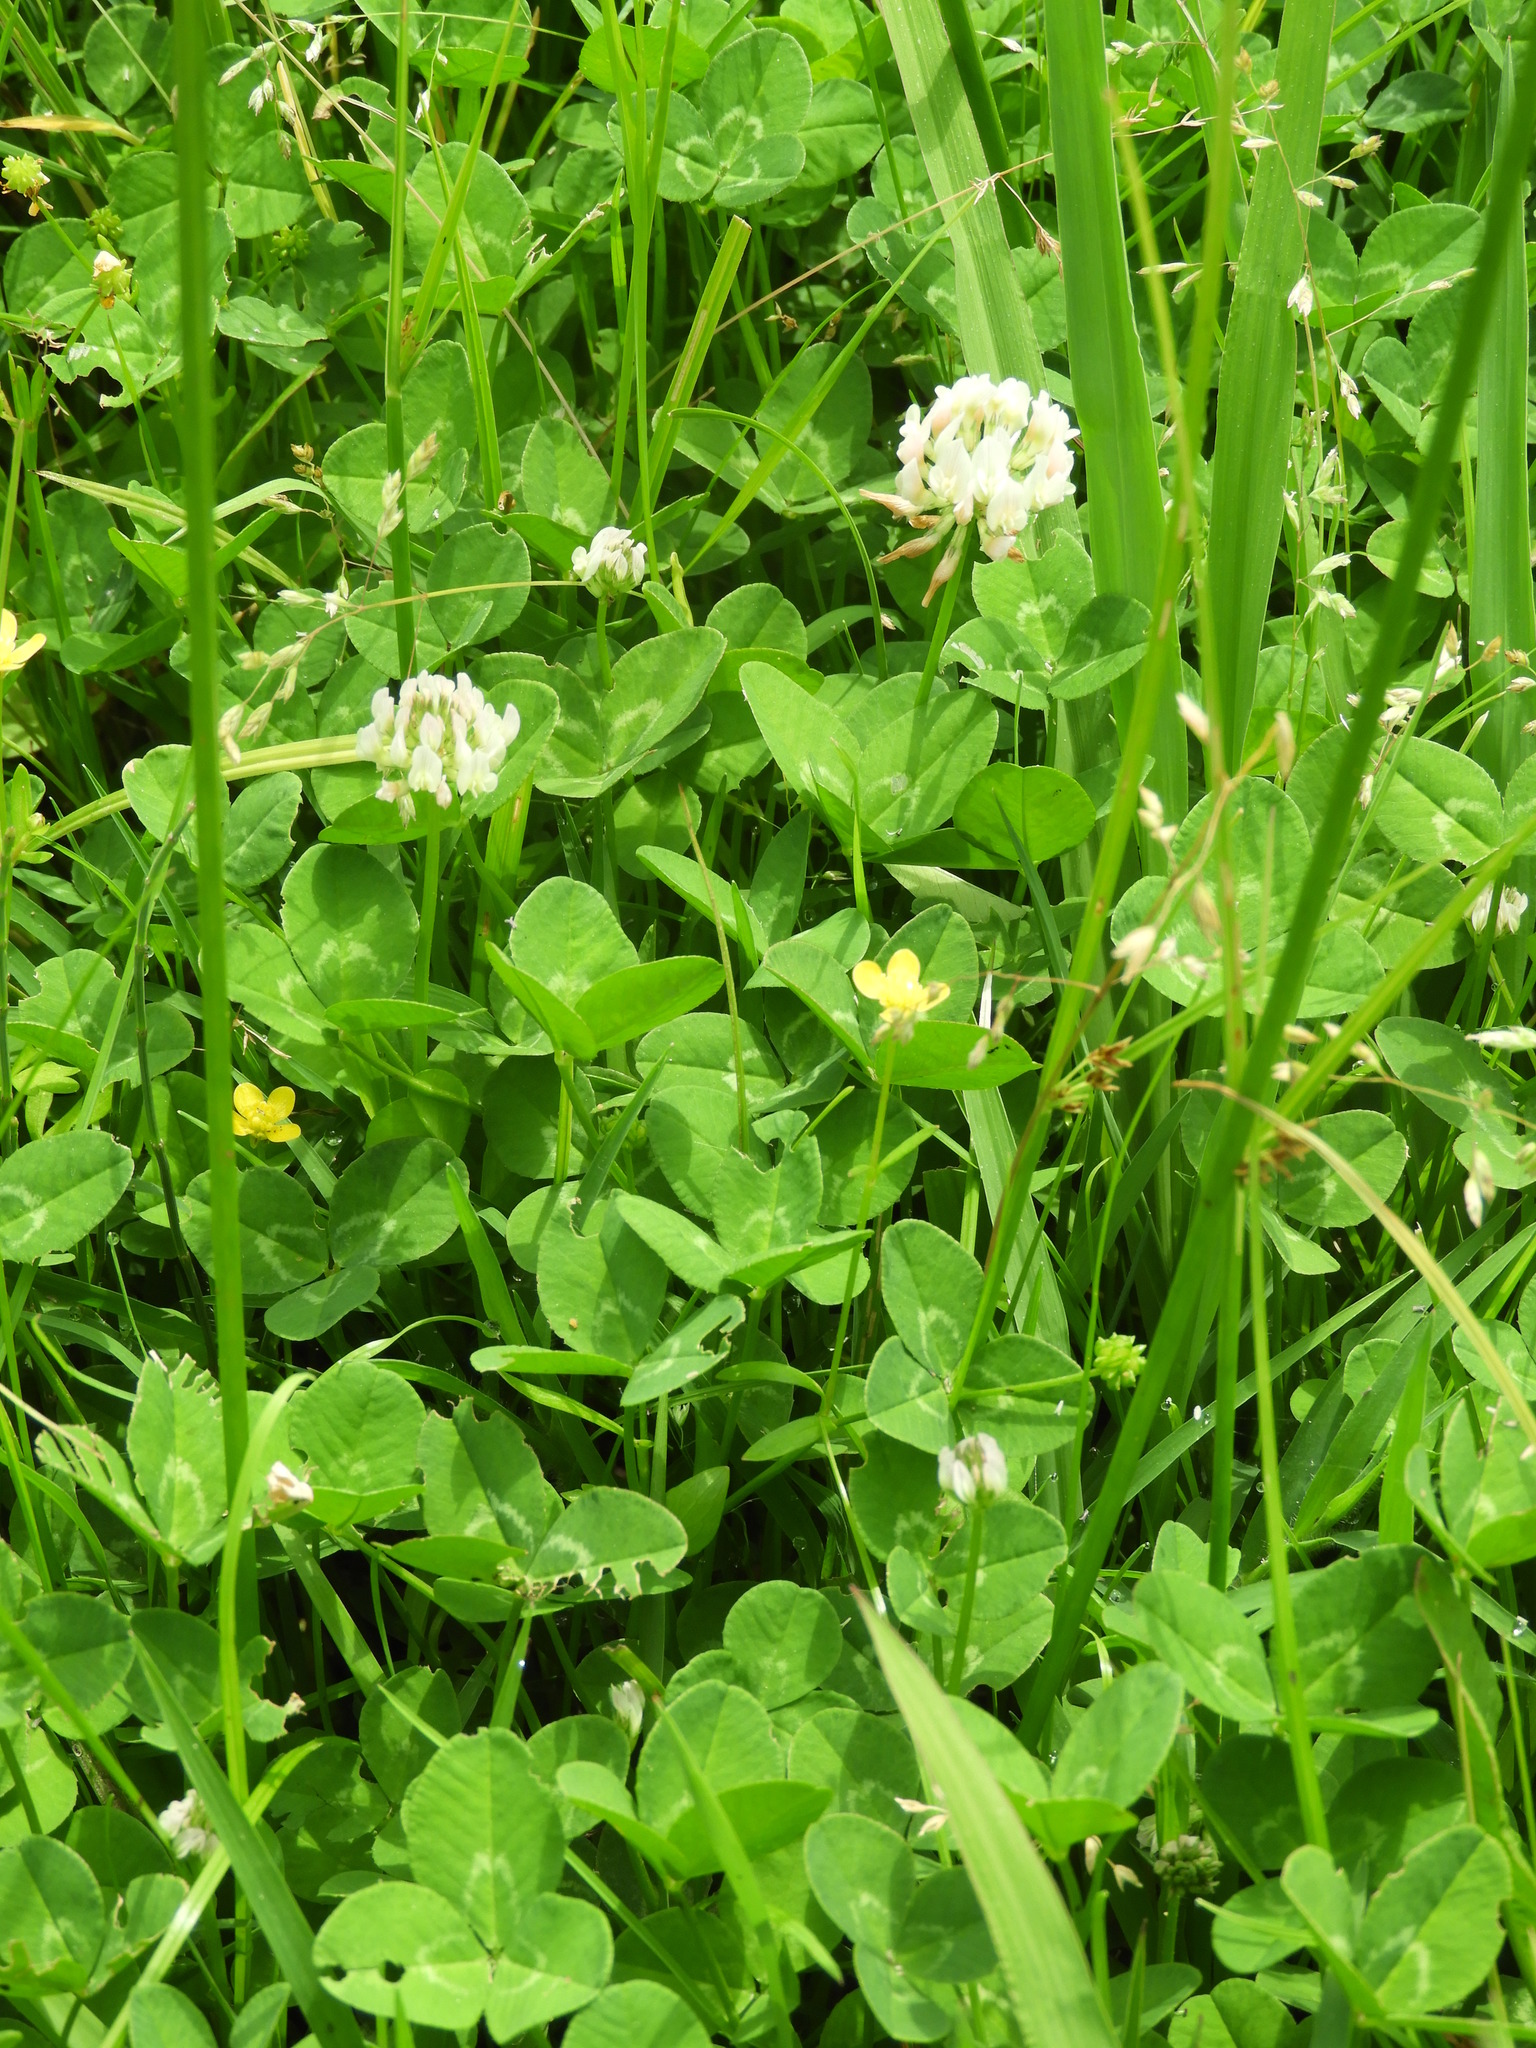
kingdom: Plantae
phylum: Tracheophyta
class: Magnoliopsida
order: Fabales
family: Fabaceae
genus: Trifolium
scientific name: Trifolium repens
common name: White clover
